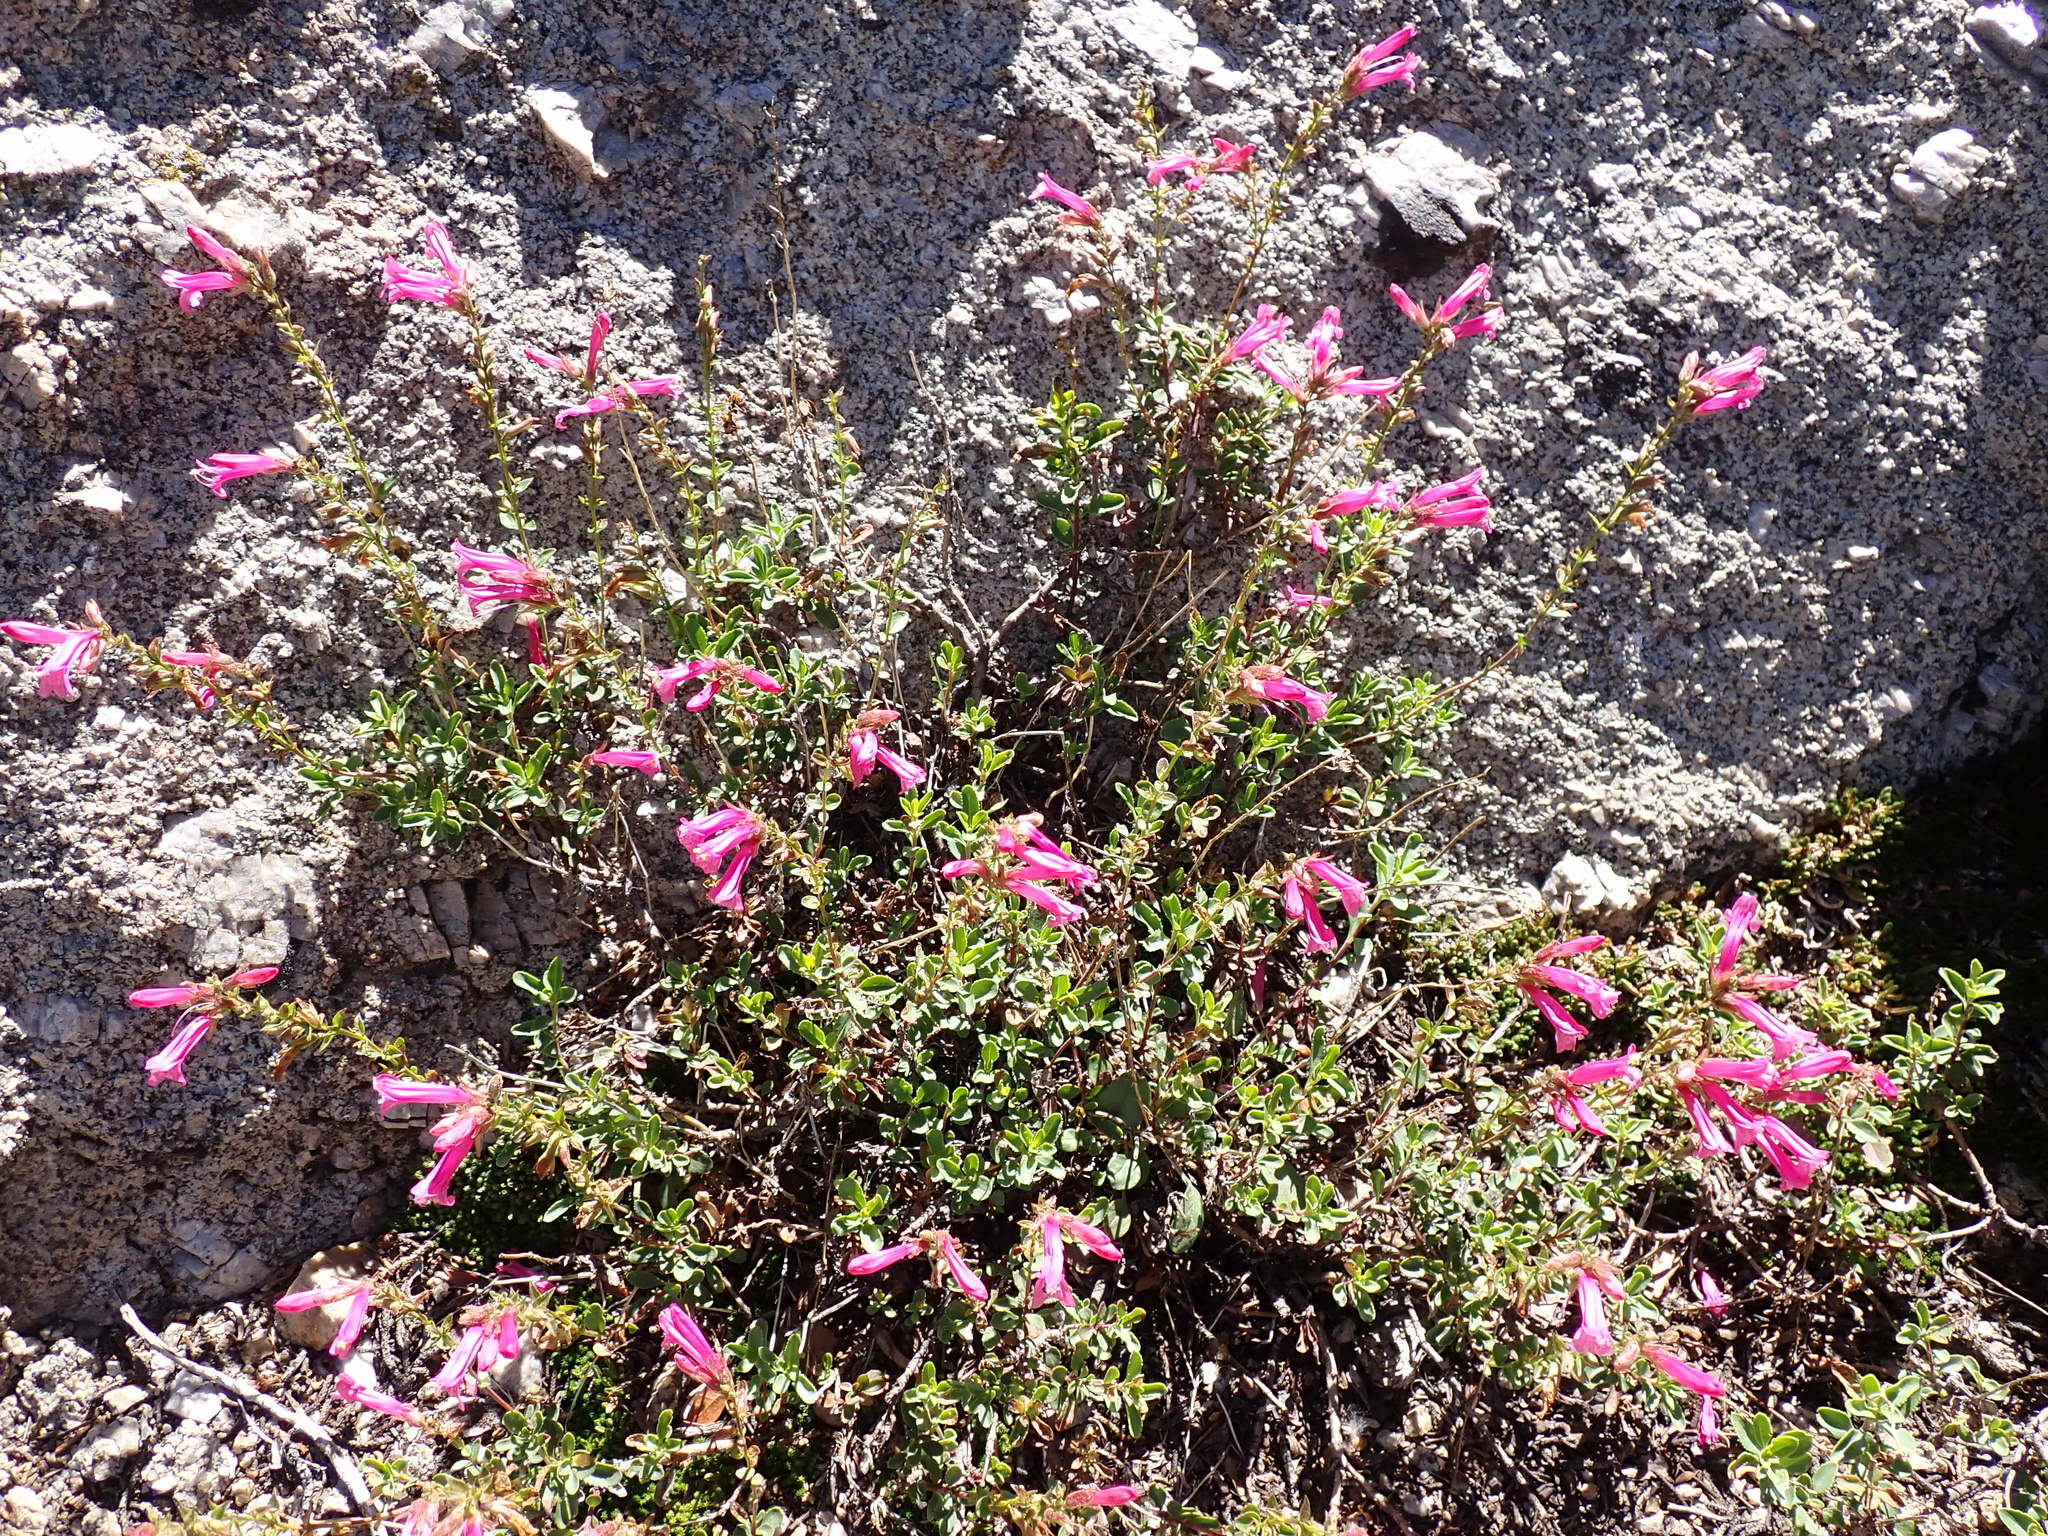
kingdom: Plantae
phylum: Tracheophyta
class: Magnoliopsida
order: Lamiales
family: Plantaginaceae
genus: Penstemon
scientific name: Penstemon newberryi
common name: Mountain-pride
